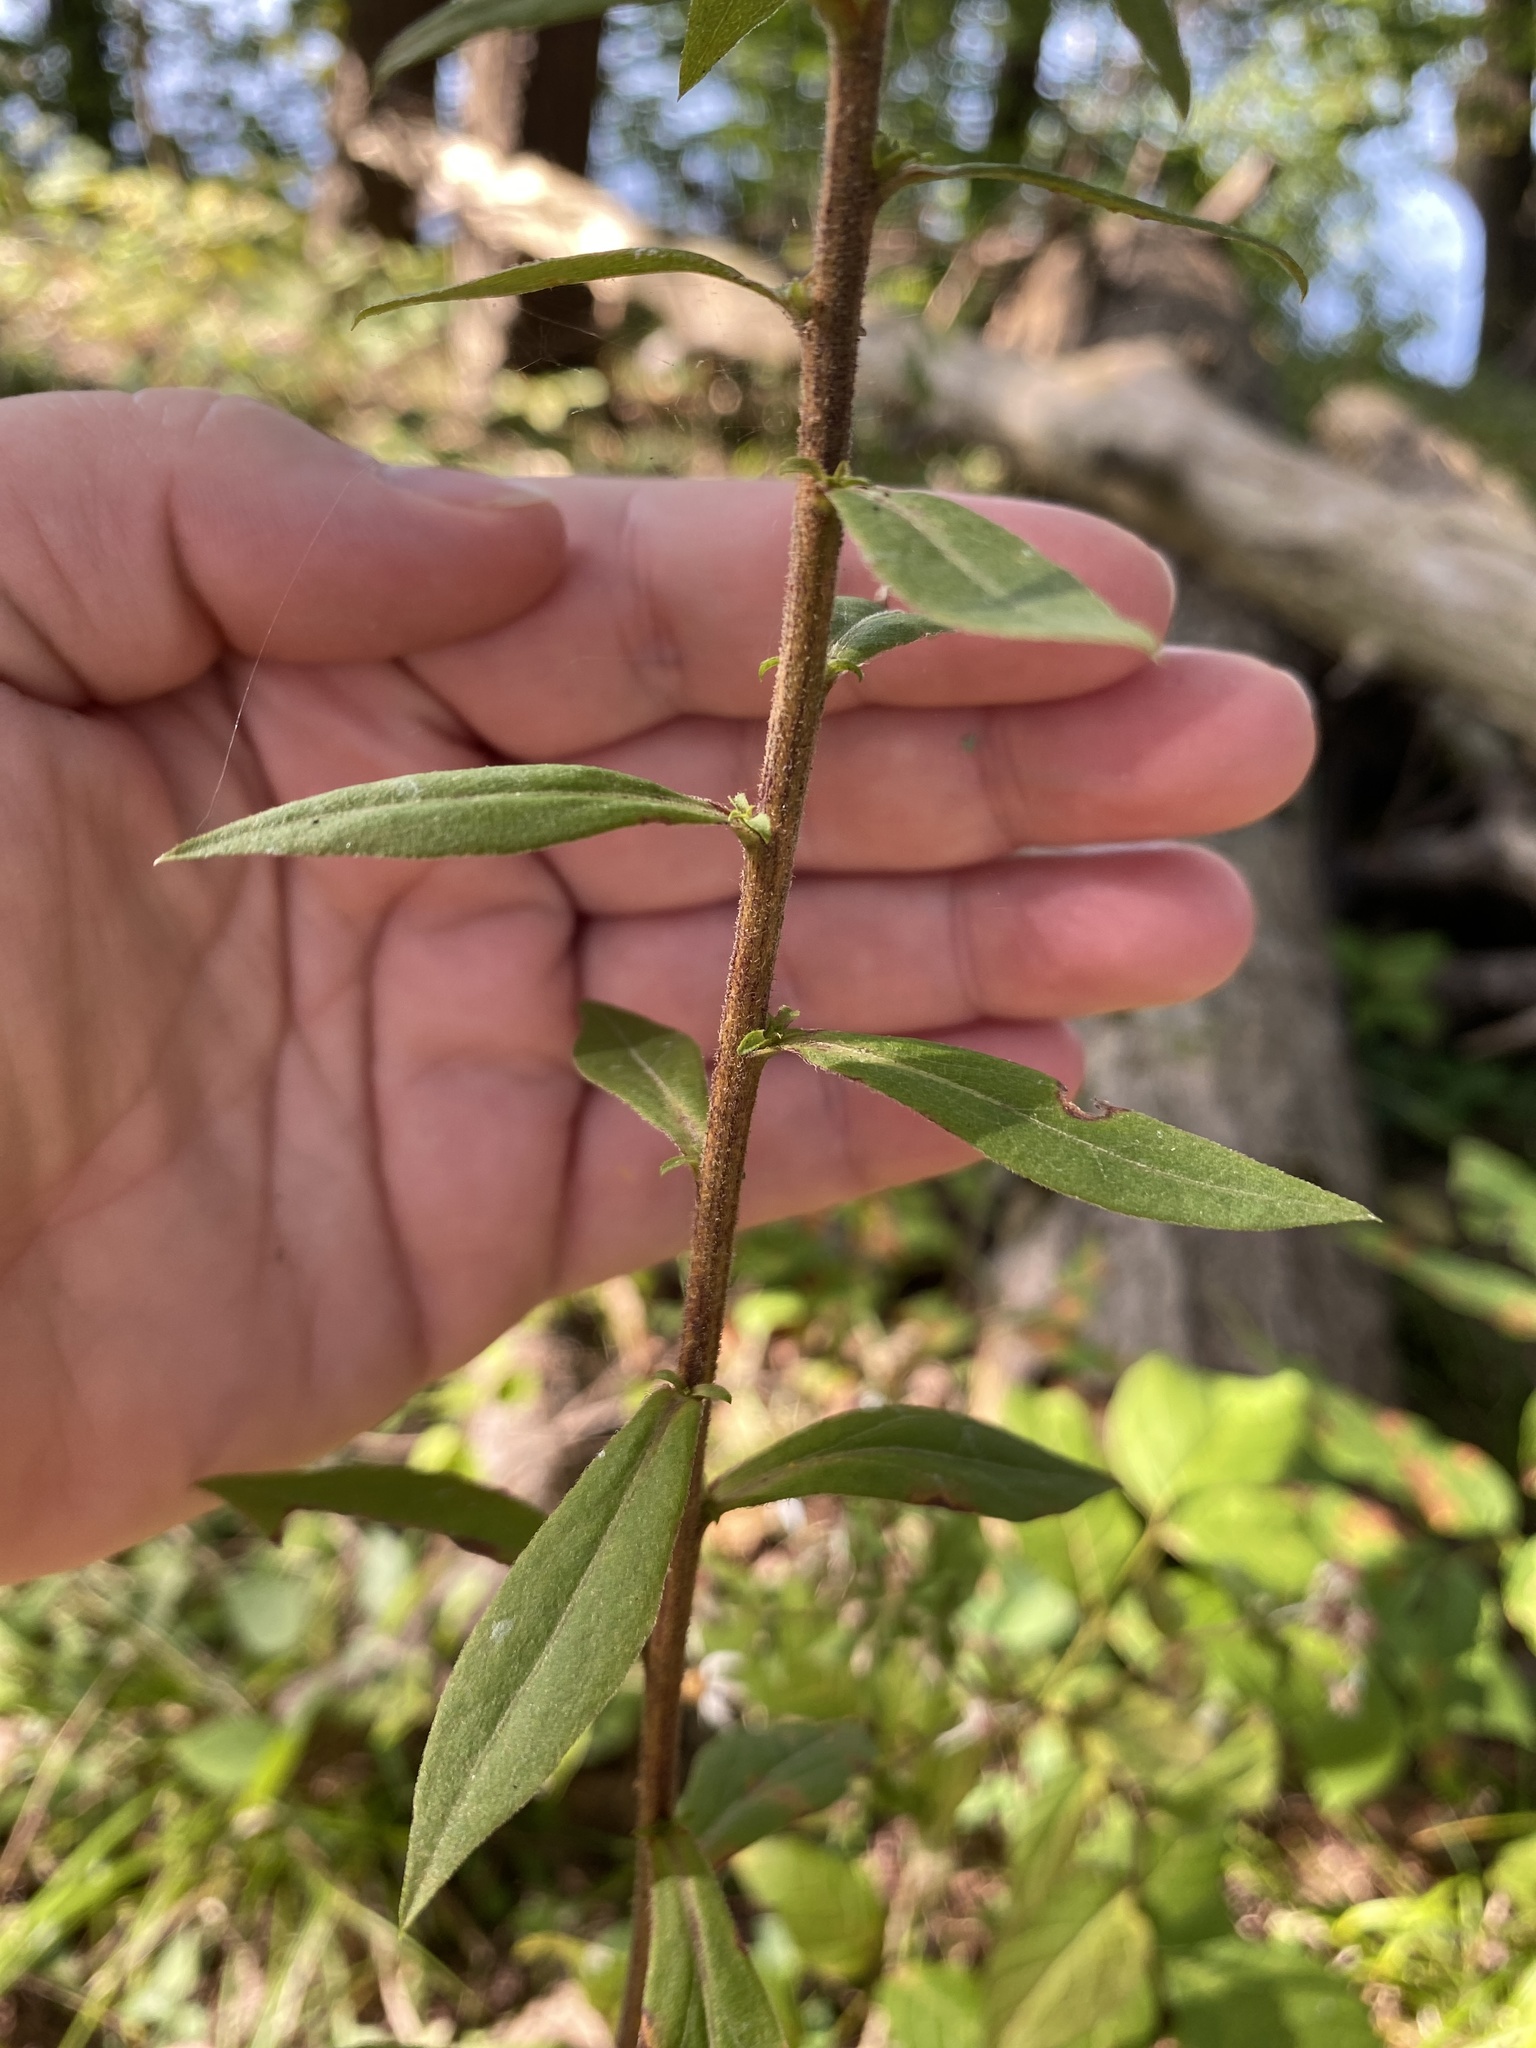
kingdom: Plantae
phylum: Tracheophyta
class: Magnoliopsida
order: Asterales
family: Asteraceae
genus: Solidago
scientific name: Solidago squarrosa
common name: Stout goldenrod
